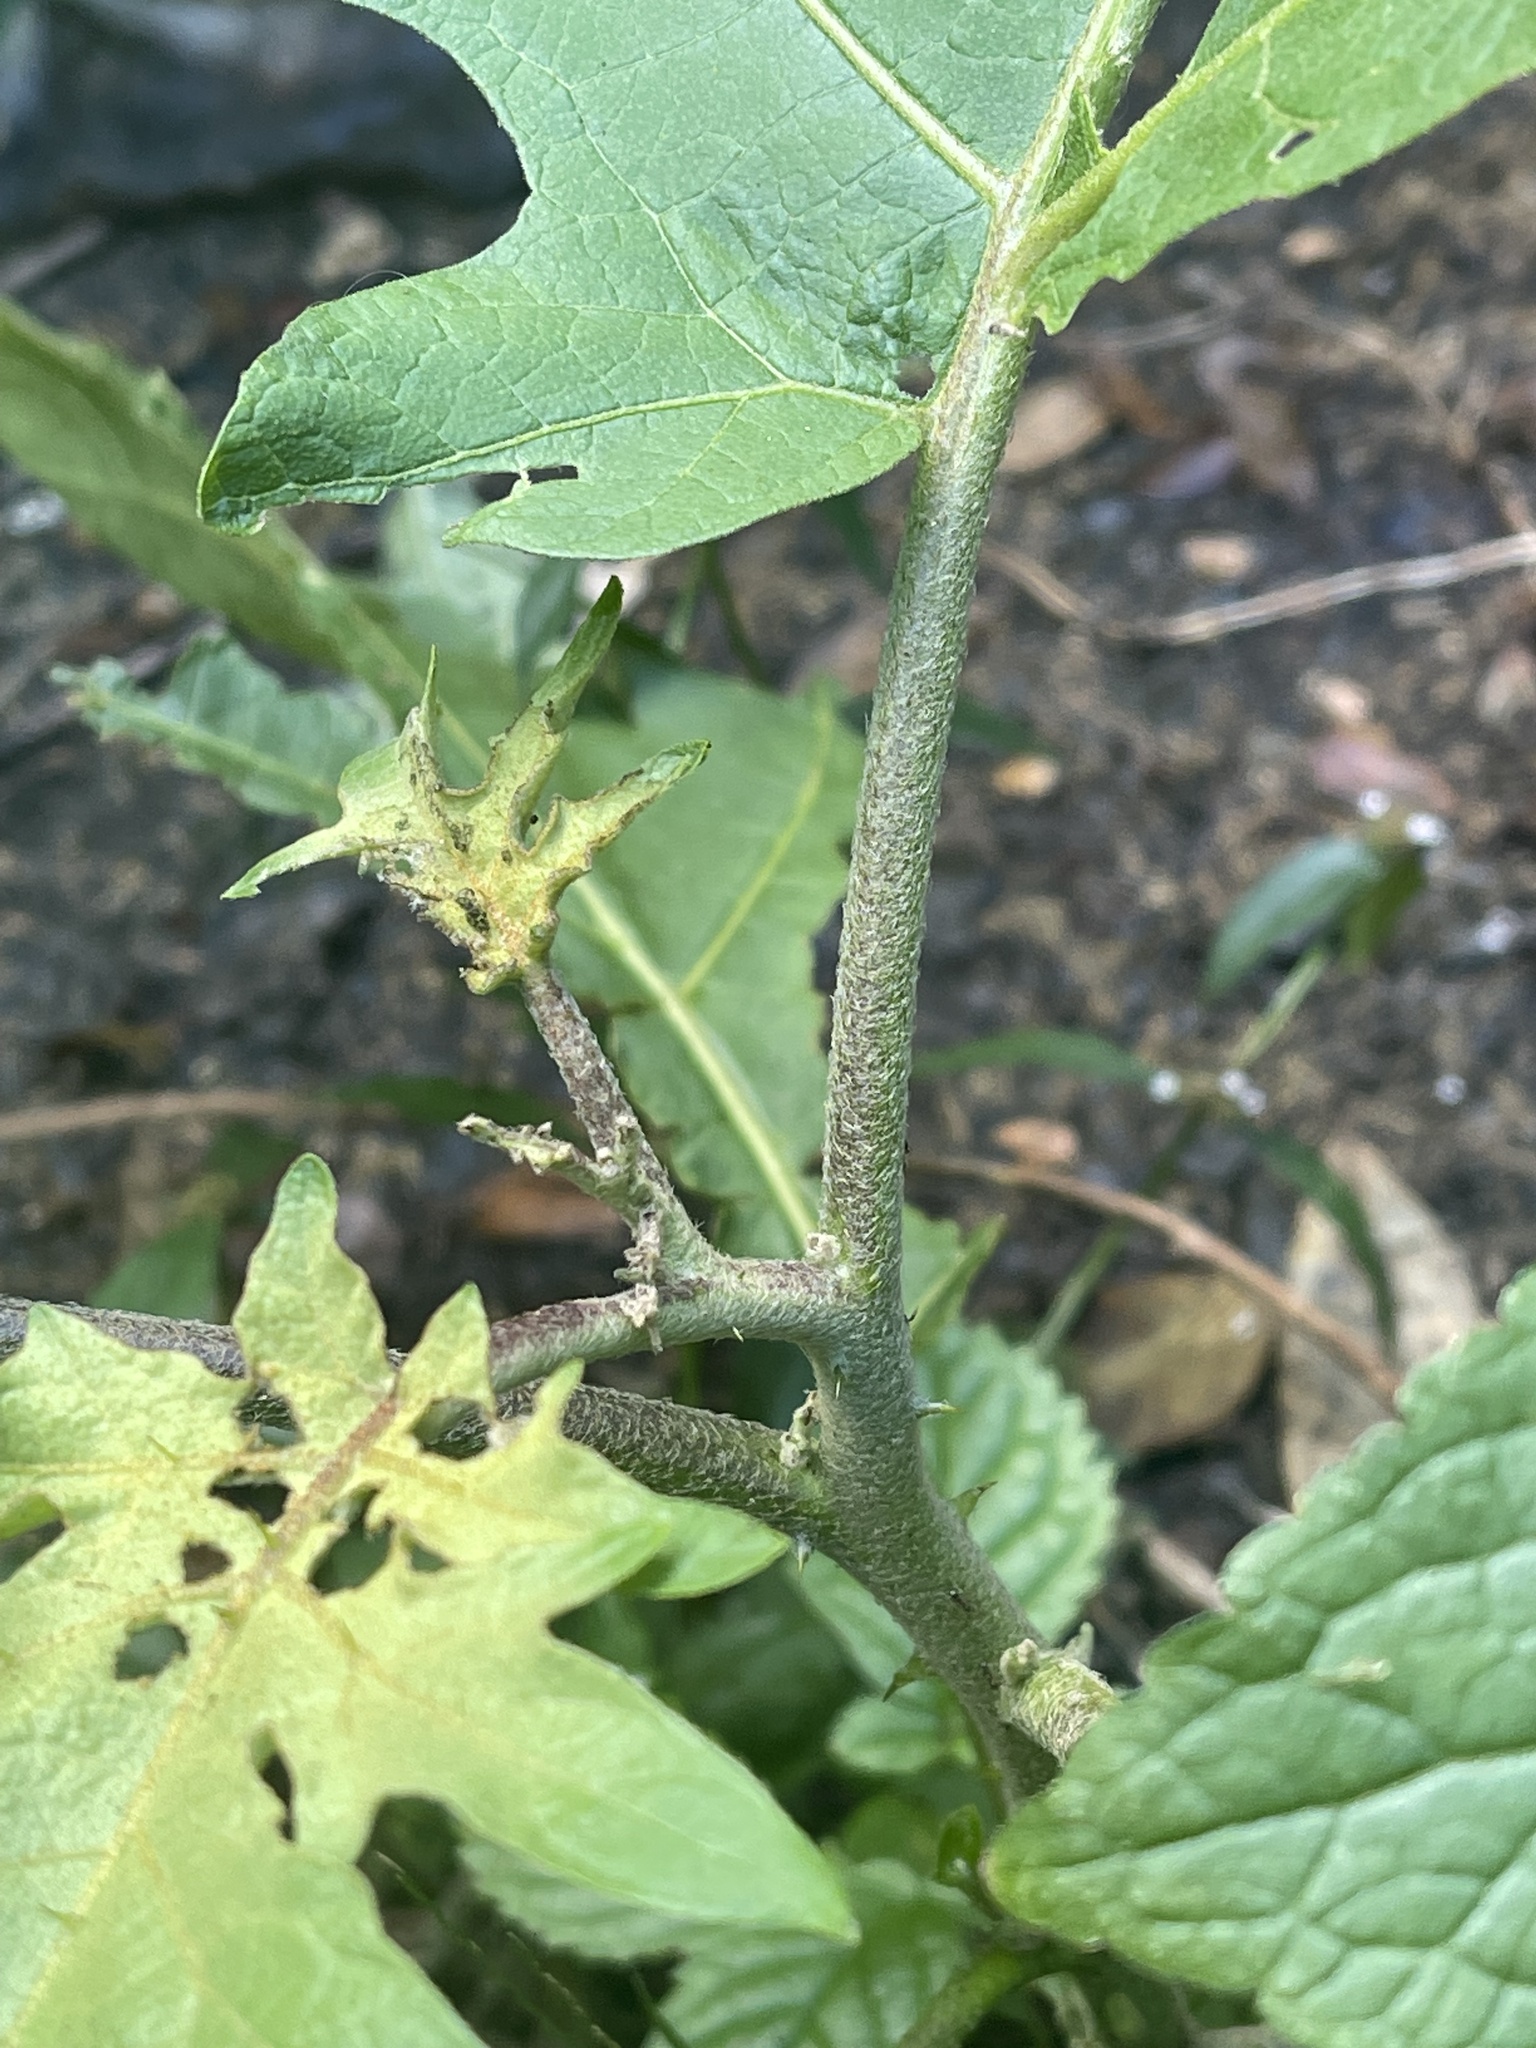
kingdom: Plantae
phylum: Tracheophyta
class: Magnoliopsida
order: Solanales
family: Solanaceae
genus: Solanum
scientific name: Solanum torvum
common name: Turkey berry
